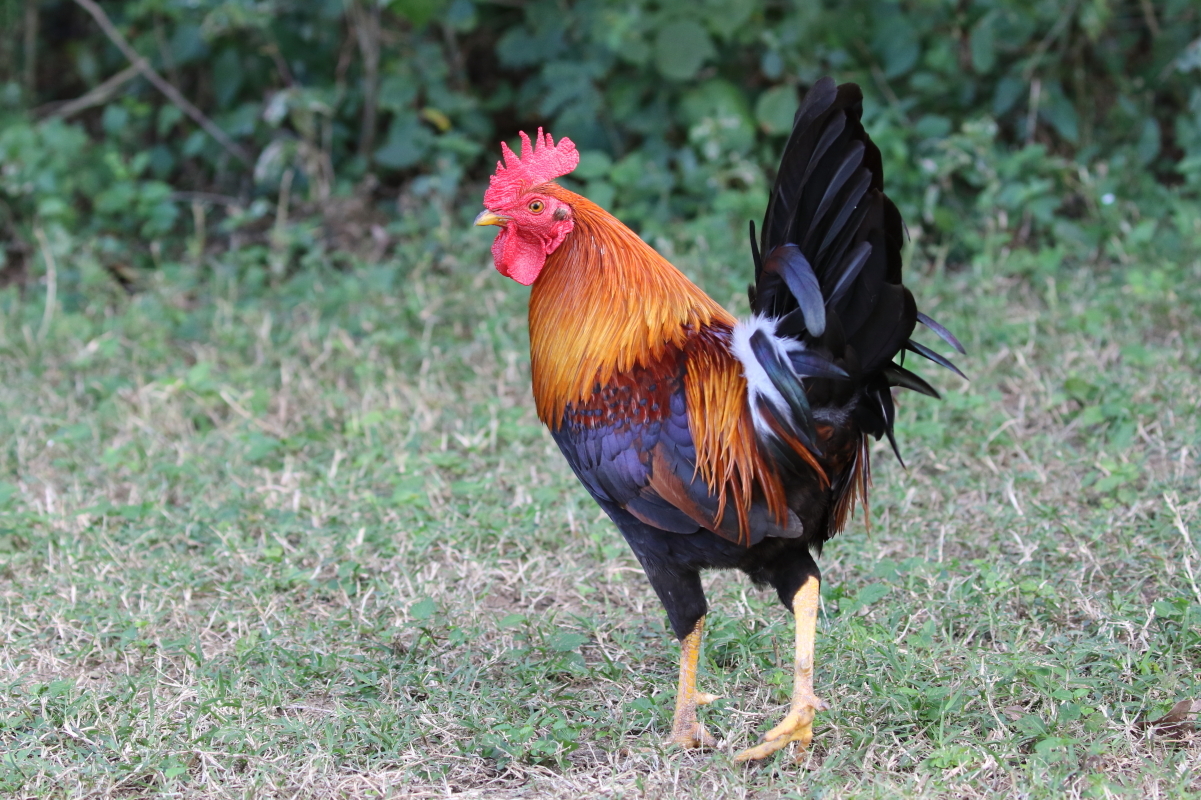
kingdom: Animalia
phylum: Chordata
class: Aves
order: Galliformes
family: Phasianidae
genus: Gallus
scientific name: Gallus gallus
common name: Red junglefowl
